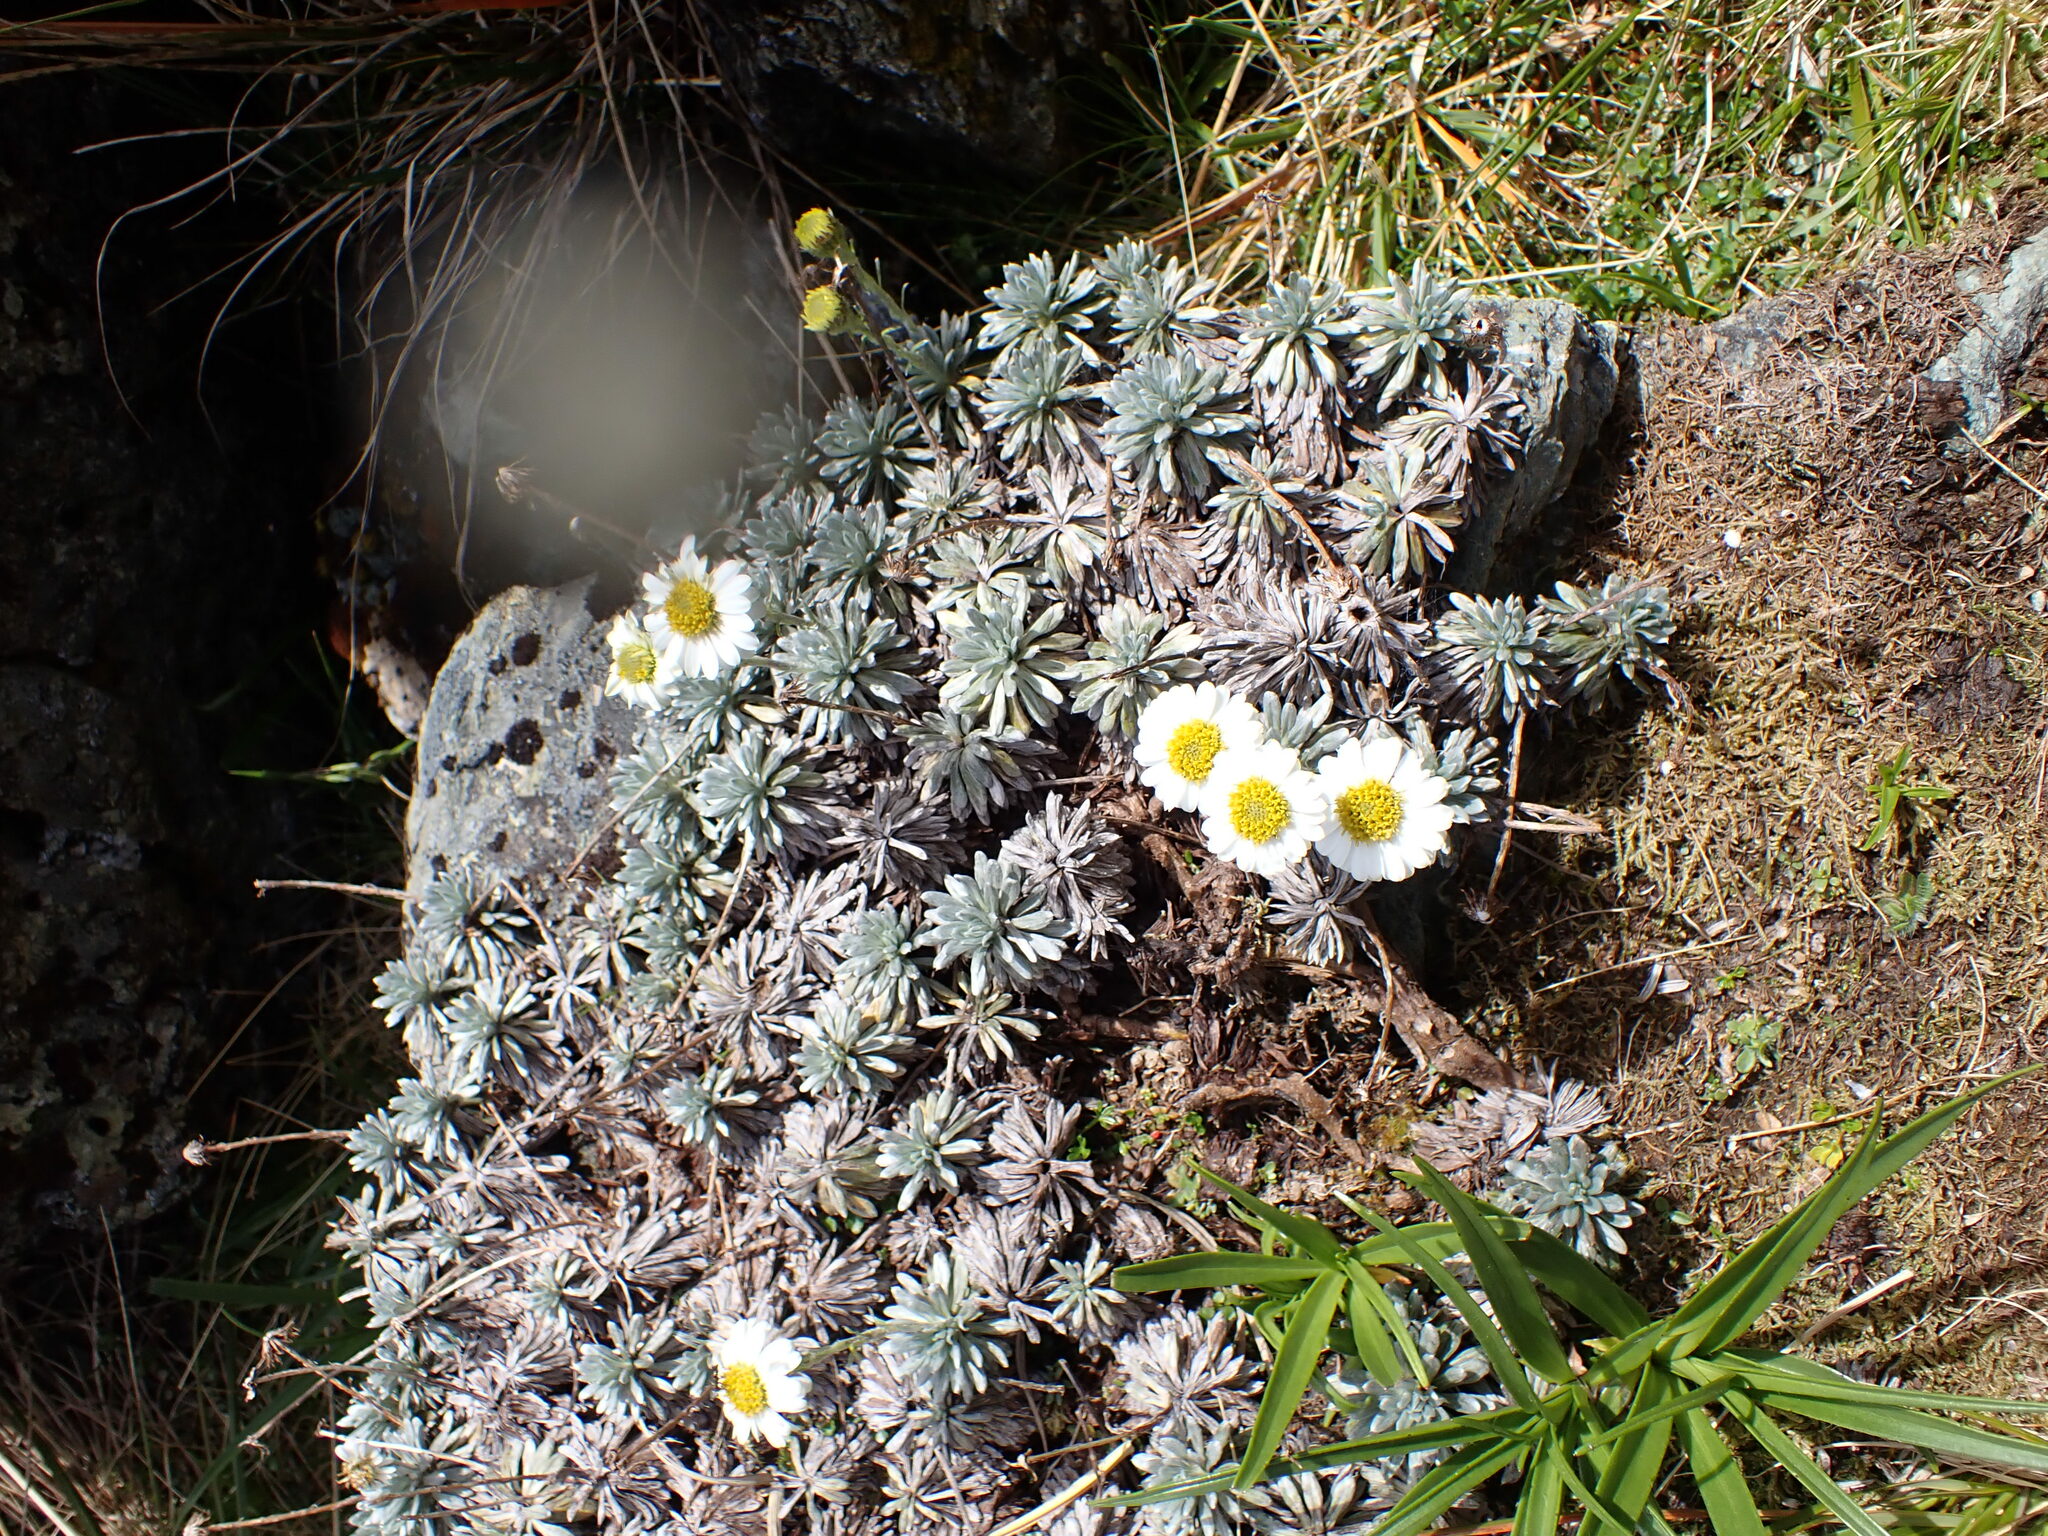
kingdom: Plantae
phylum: Tracheophyta
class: Magnoliopsida
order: Asterales
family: Asteraceae
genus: Celmisia
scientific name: Celmisia hectorii
